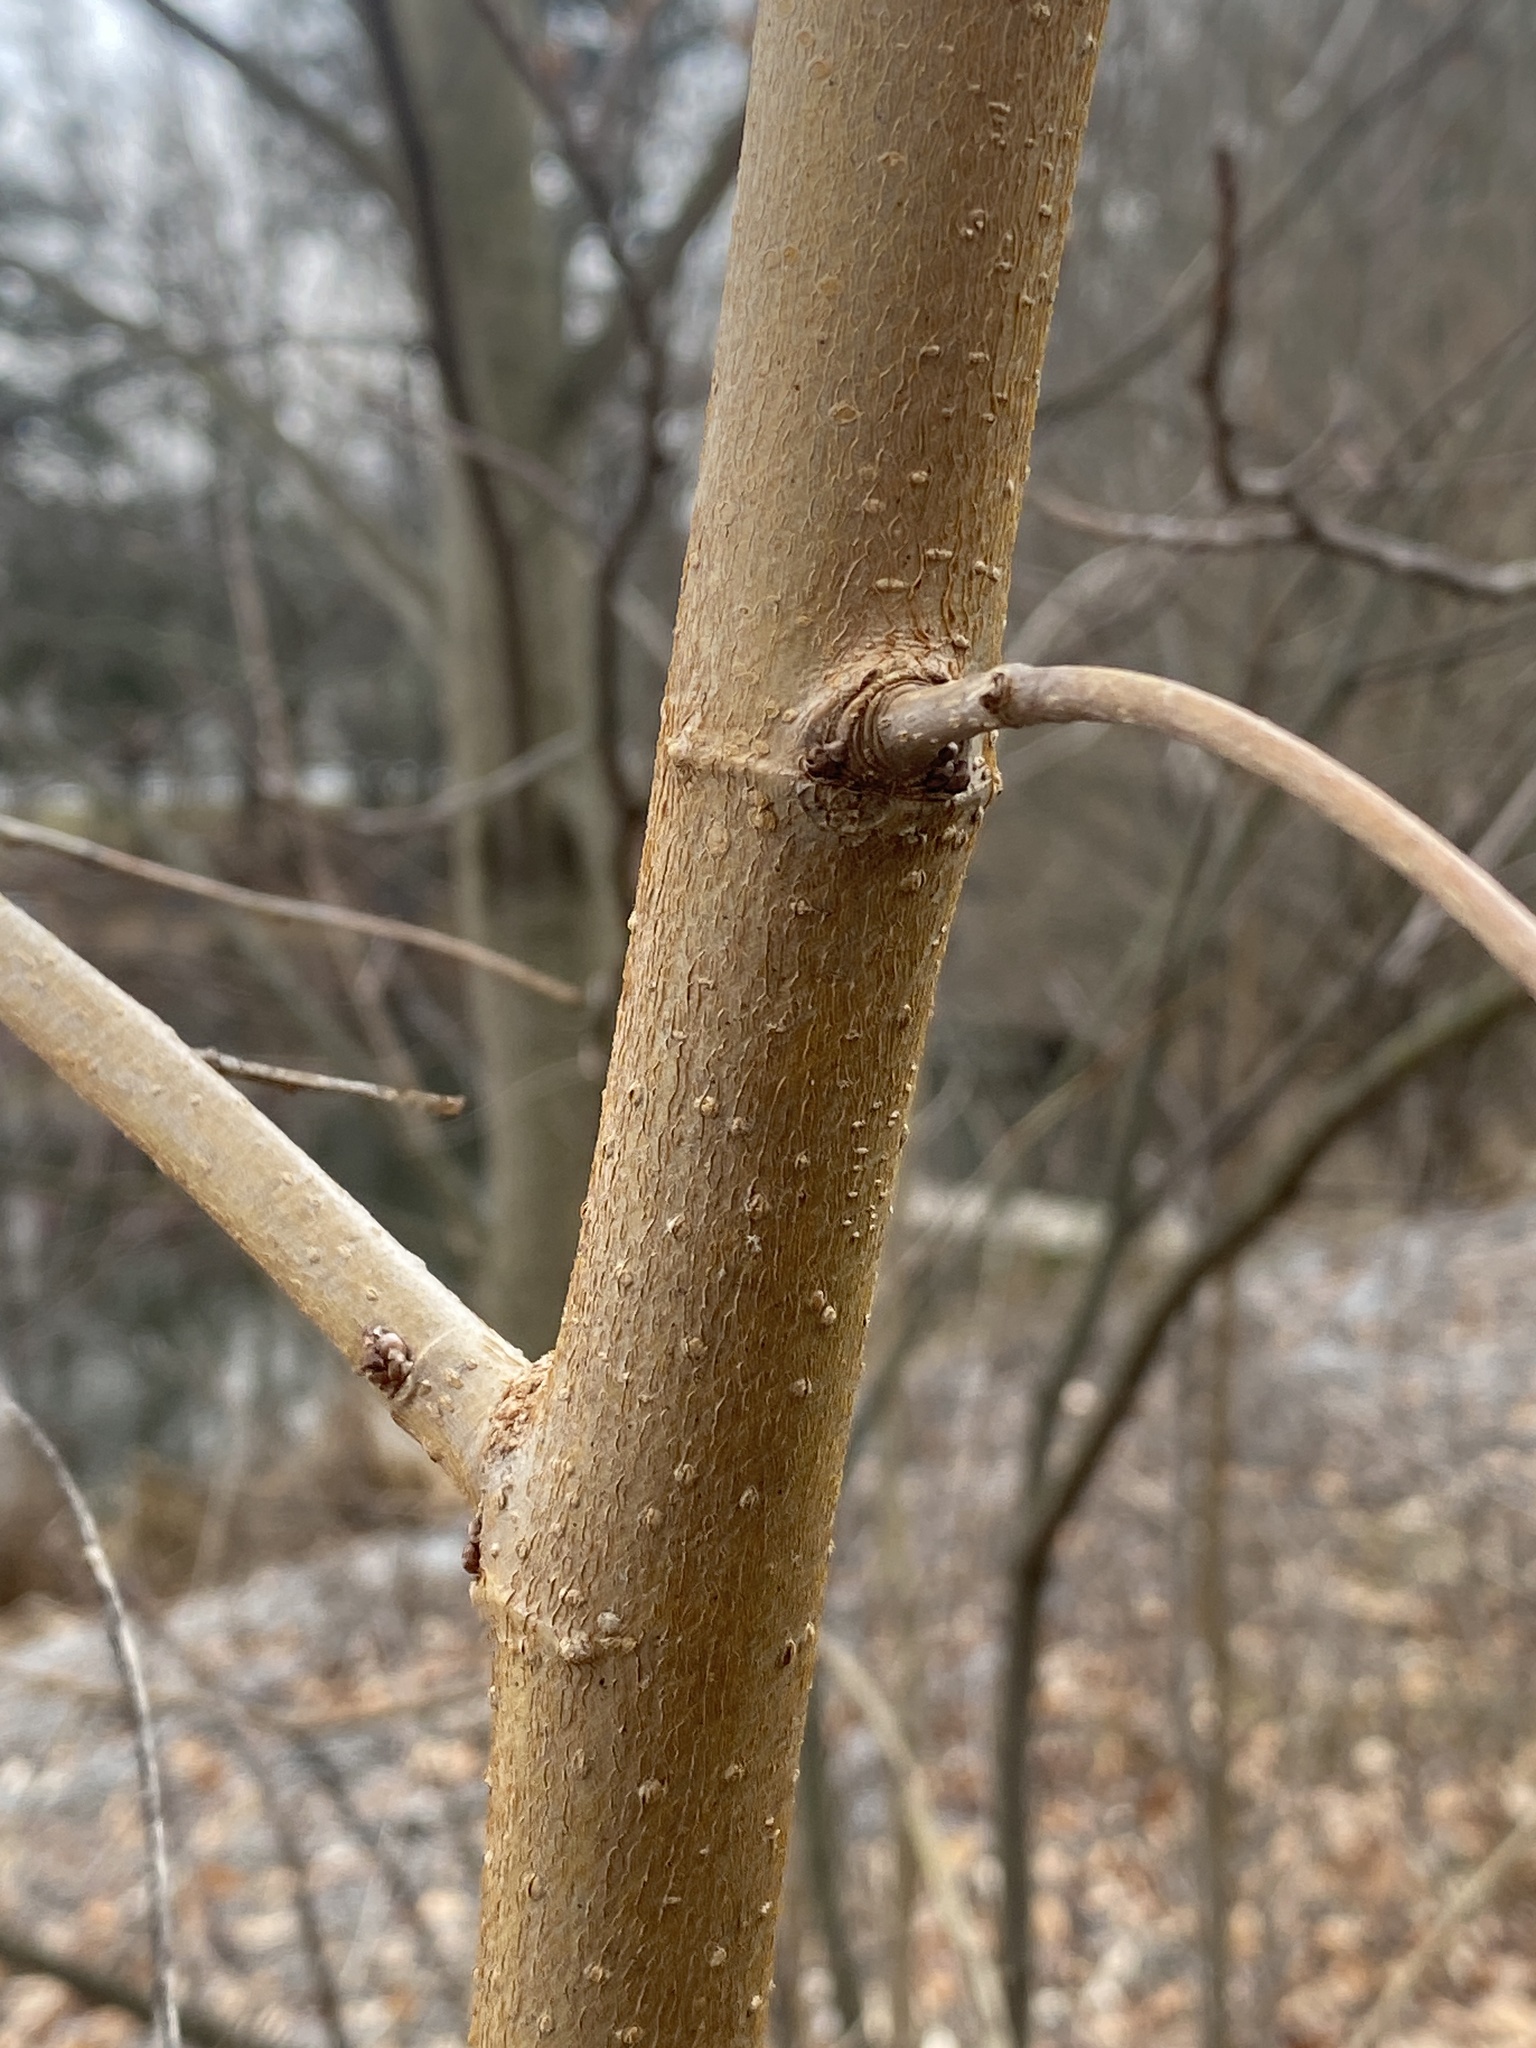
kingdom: Plantae
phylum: Tracheophyta
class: Magnoliopsida
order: Magnoliales
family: Magnoliaceae
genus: Liriodendron
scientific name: Liriodendron tulipifera
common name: Tulip tree
